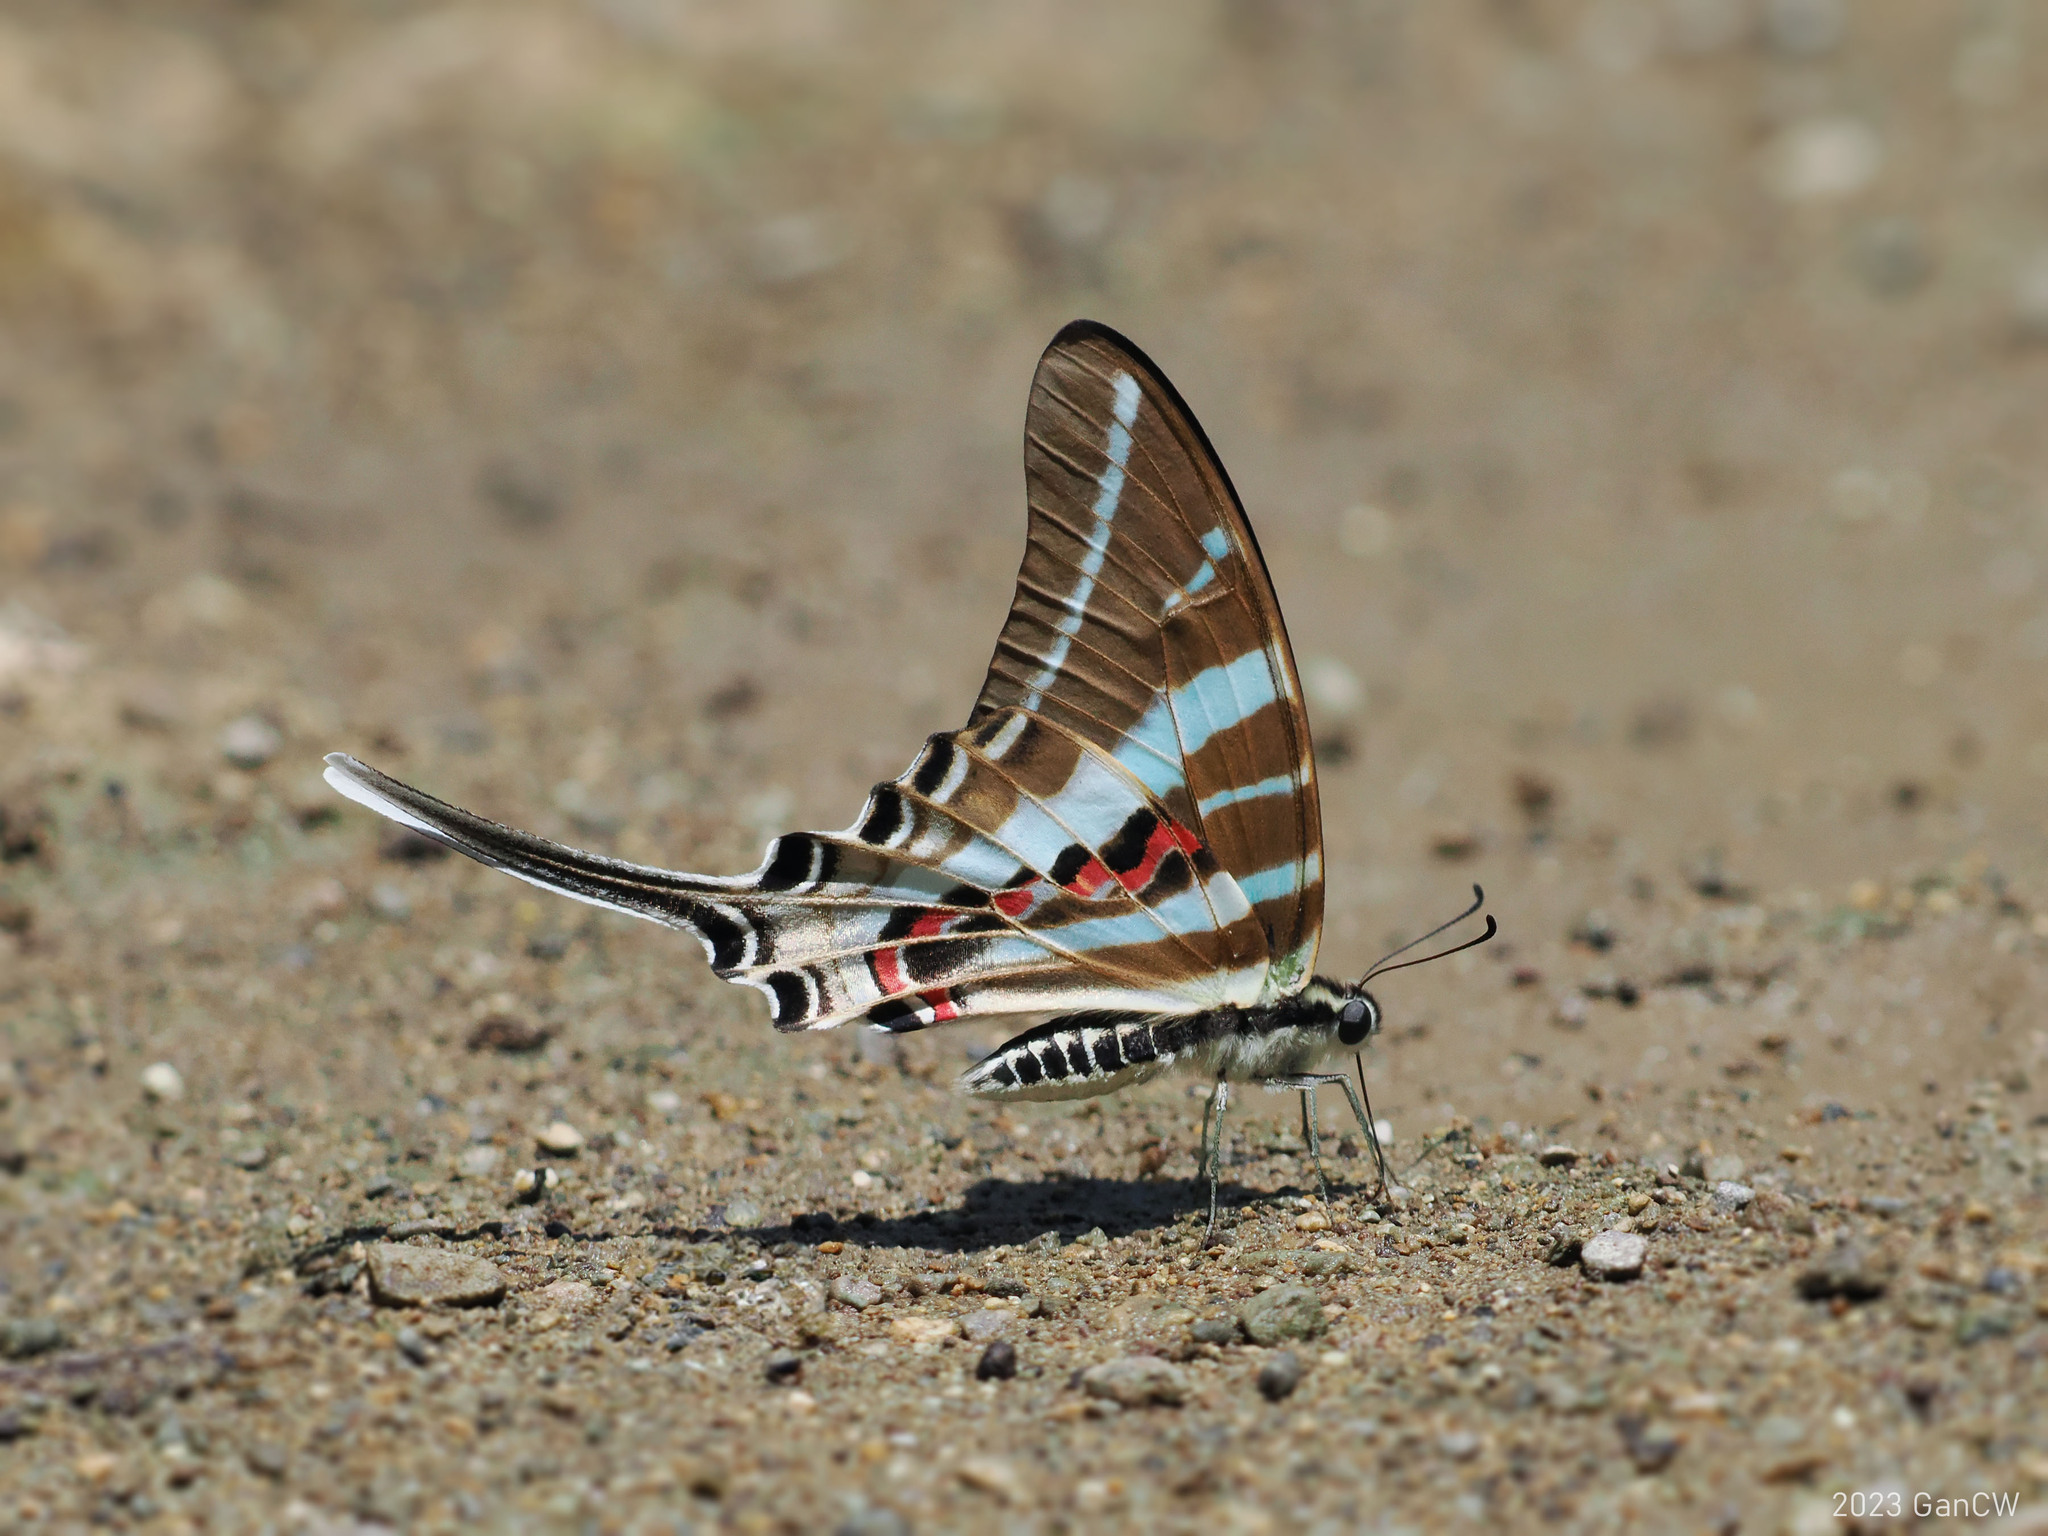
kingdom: Animalia
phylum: Arthropoda
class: Insecta
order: Lepidoptera
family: Papilionidae
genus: Graphium
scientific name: Graphium rhesus
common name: Monkey swordtail
